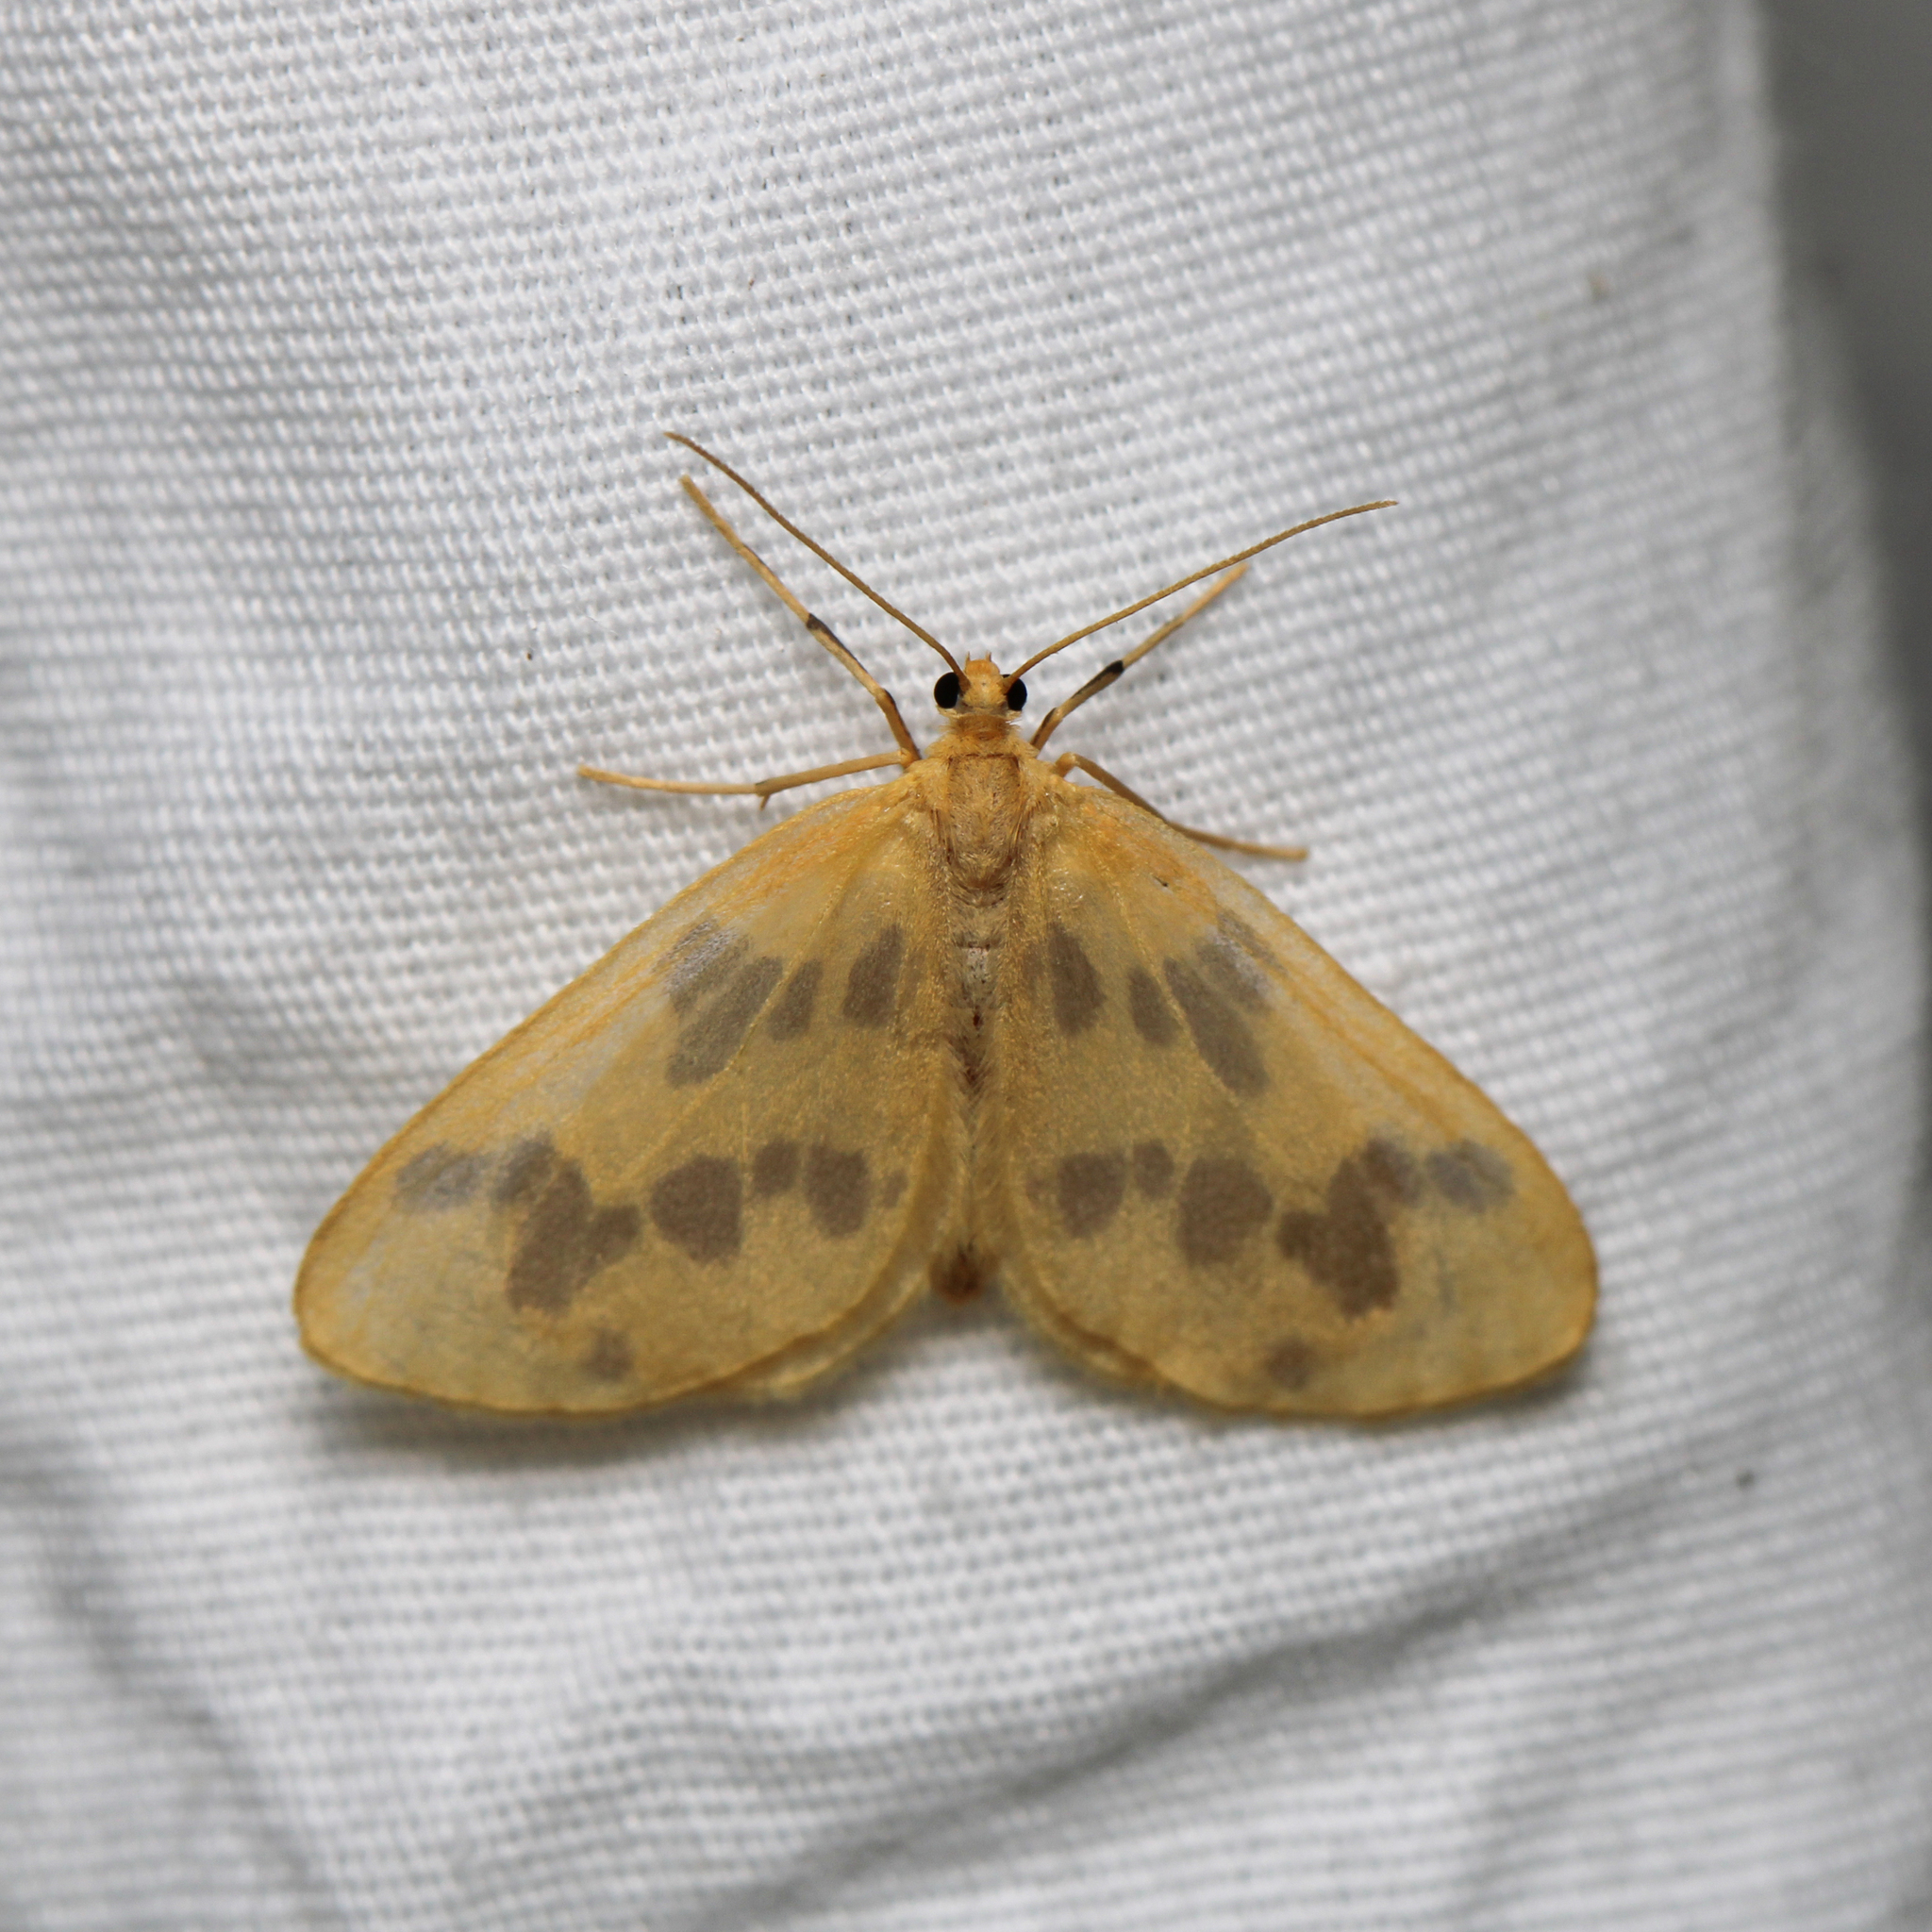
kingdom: Animalia
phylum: Arthropoda
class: Insecta
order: Lepidoptera
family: Geometridae
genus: Eubaphe
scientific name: Eubaphe mendica
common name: Beggar
